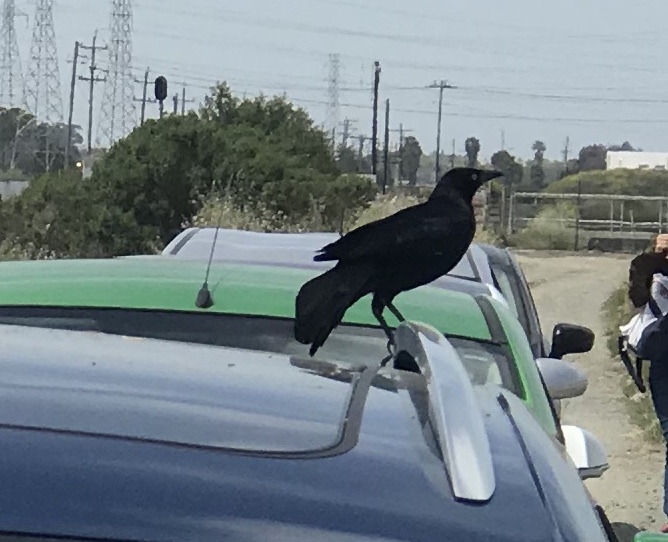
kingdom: Animalia
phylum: Chordata
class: Aves
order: Passeriformes
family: Icteridae
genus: Quiscalus
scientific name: Quiscalus mexicanus
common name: Great-tailed grackle
